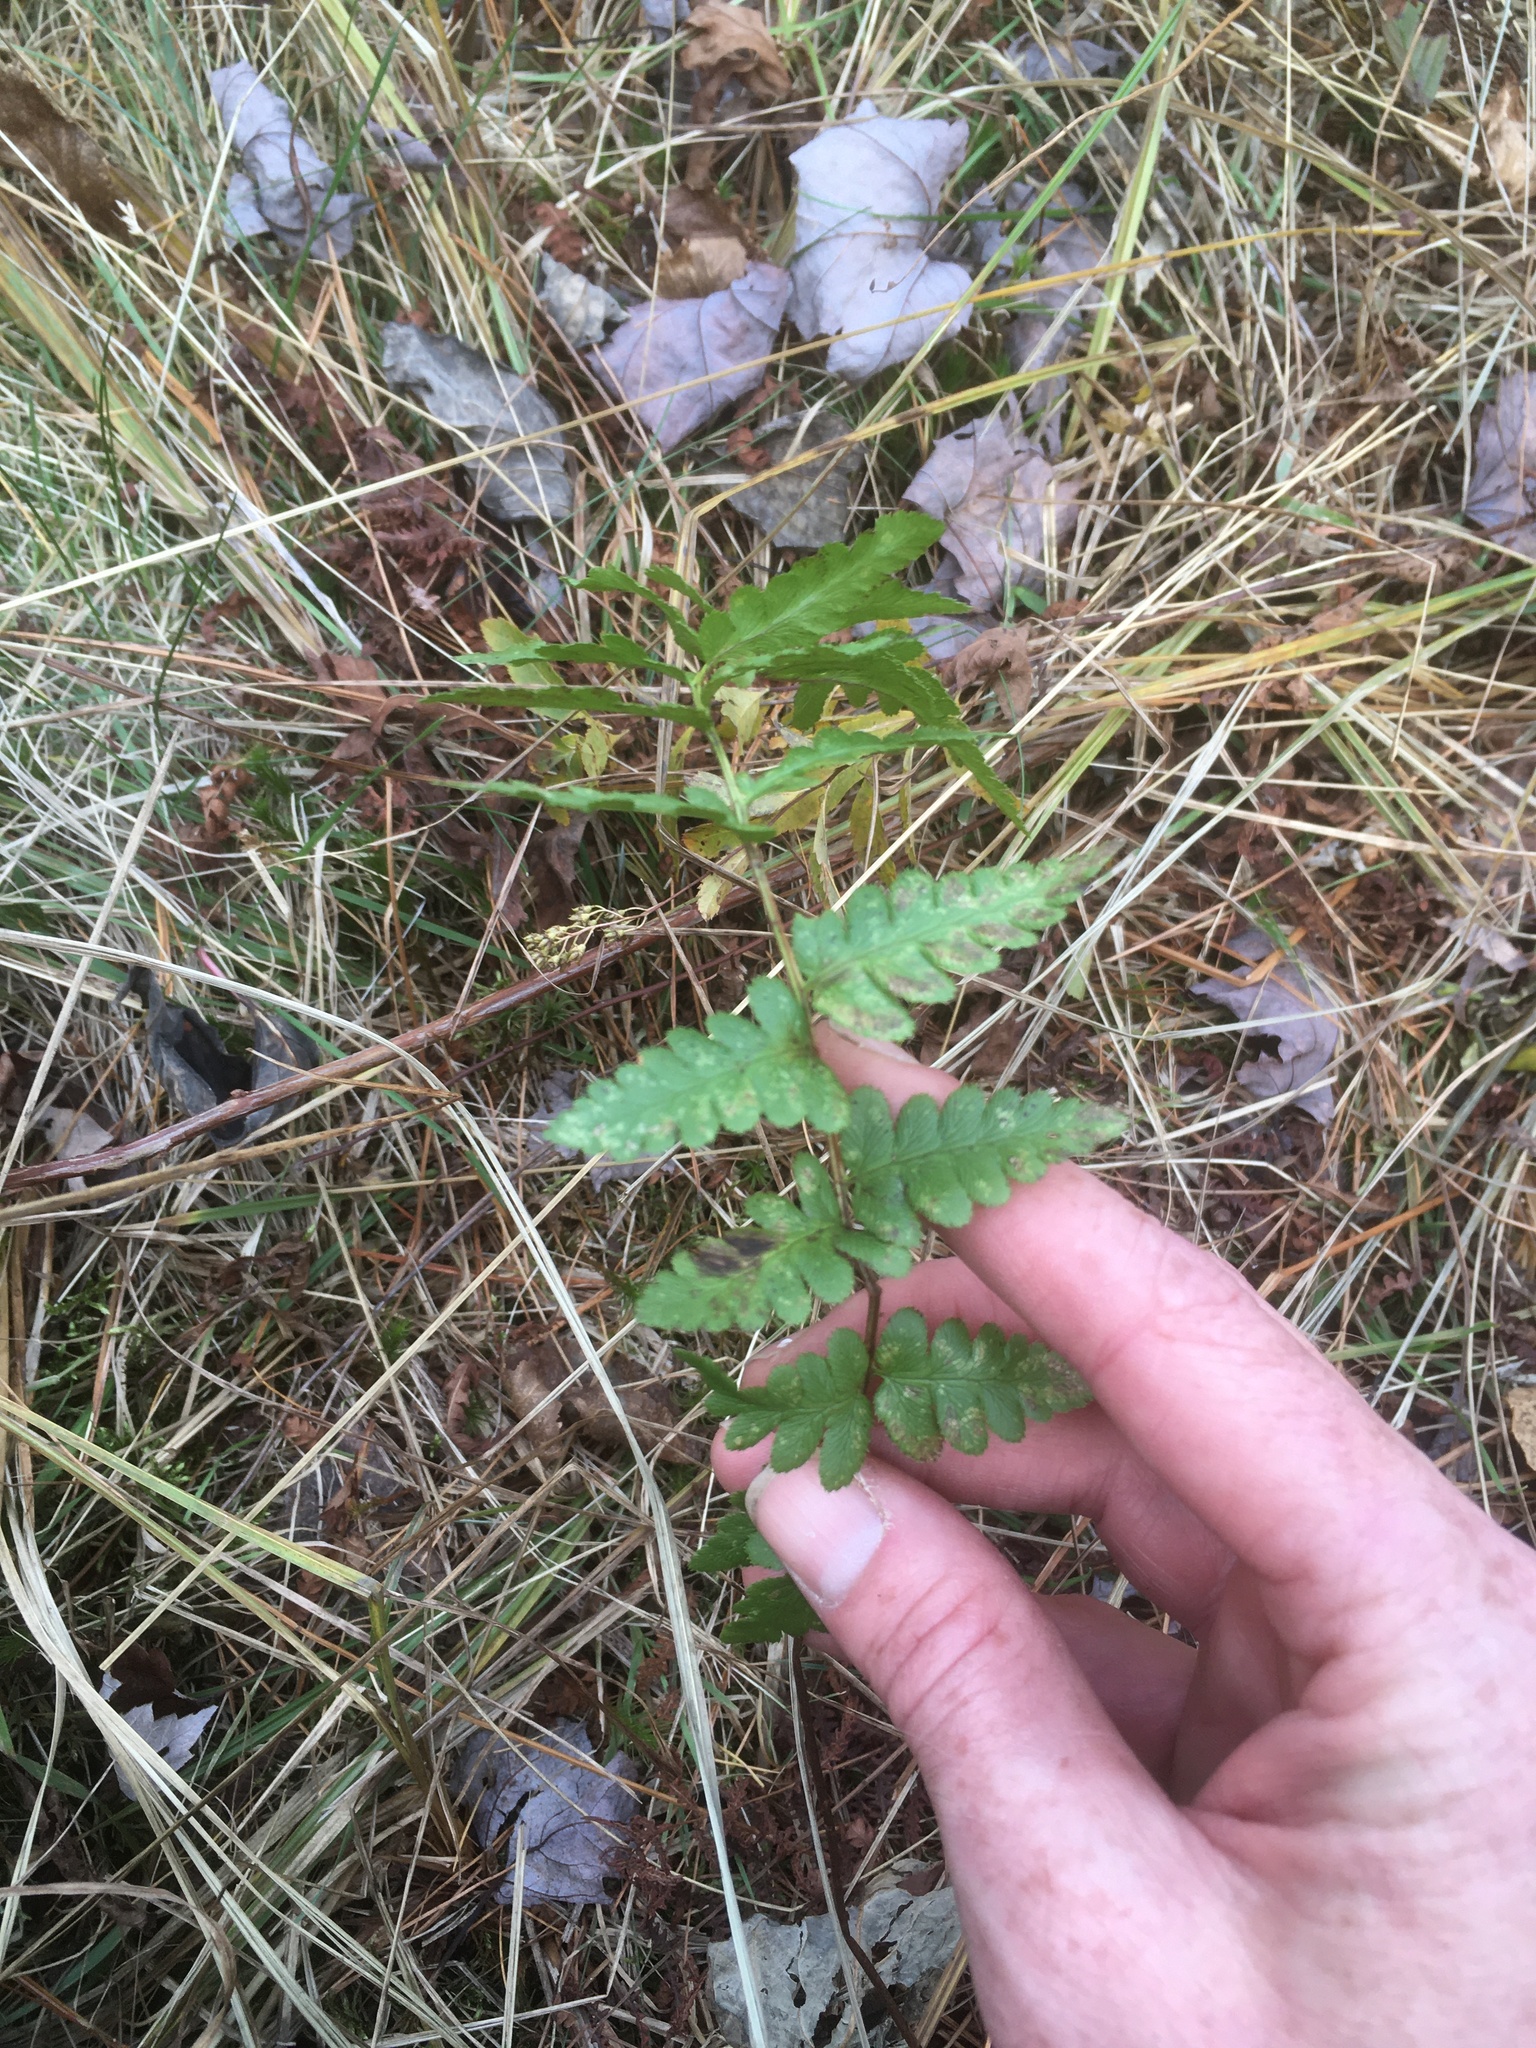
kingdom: Plantae
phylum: Tracheophyta
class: Polypodiopsida
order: Polypodiales
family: Dryopteridaceae
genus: Dryopteris
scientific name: Dryopteris cristata
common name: Crested wood fern
